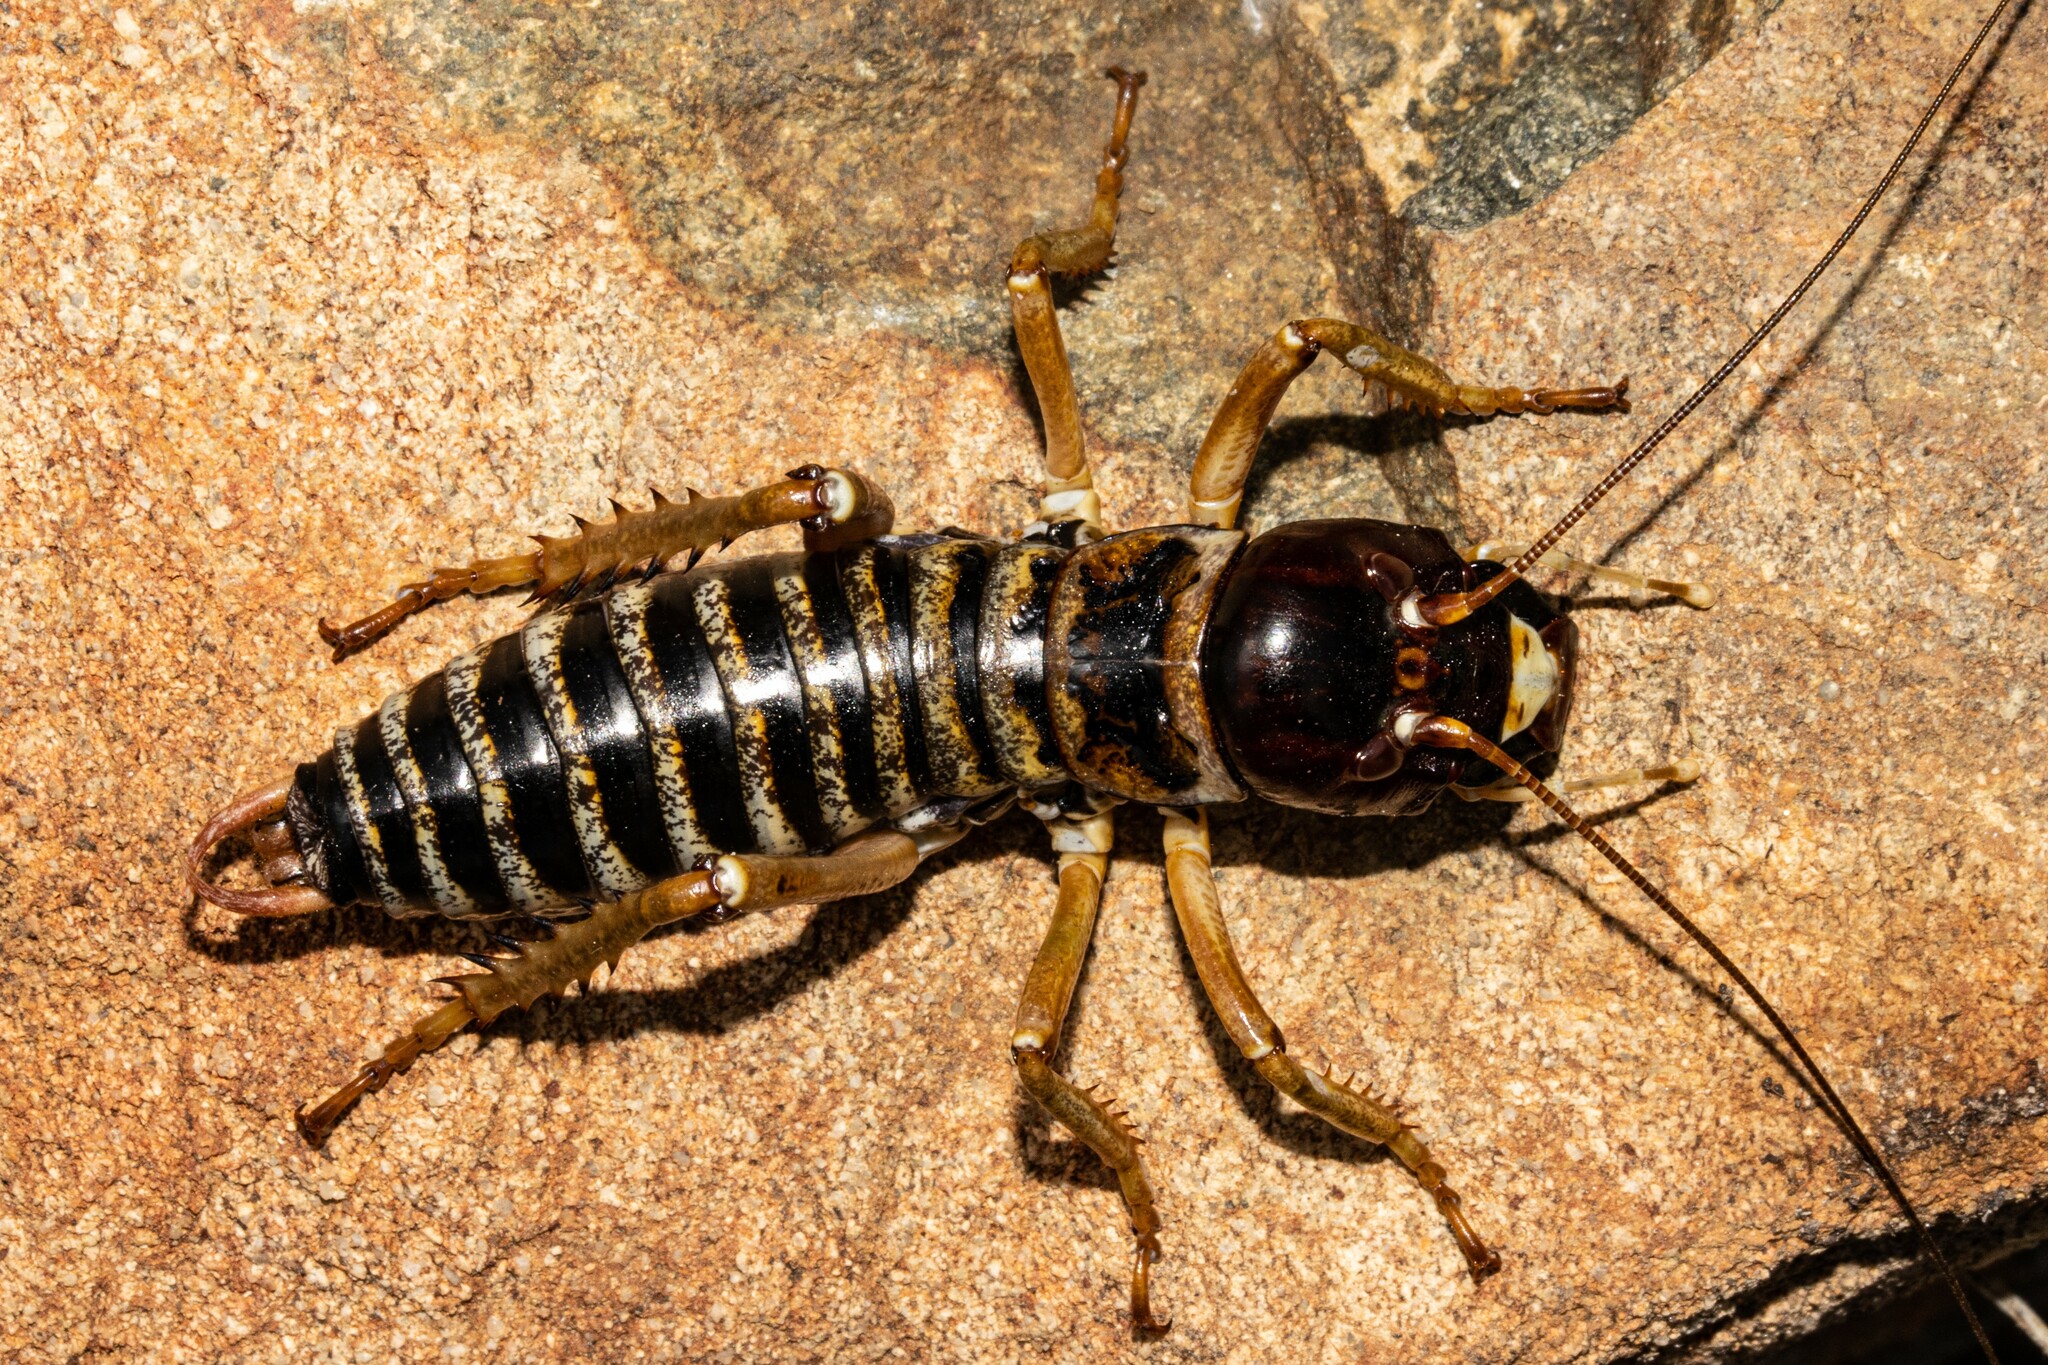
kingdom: Animalia
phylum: Arthropoda
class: Insecta
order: Orthoptera
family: Anostostomatidae
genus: Hemideina
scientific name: Hemideina maori
